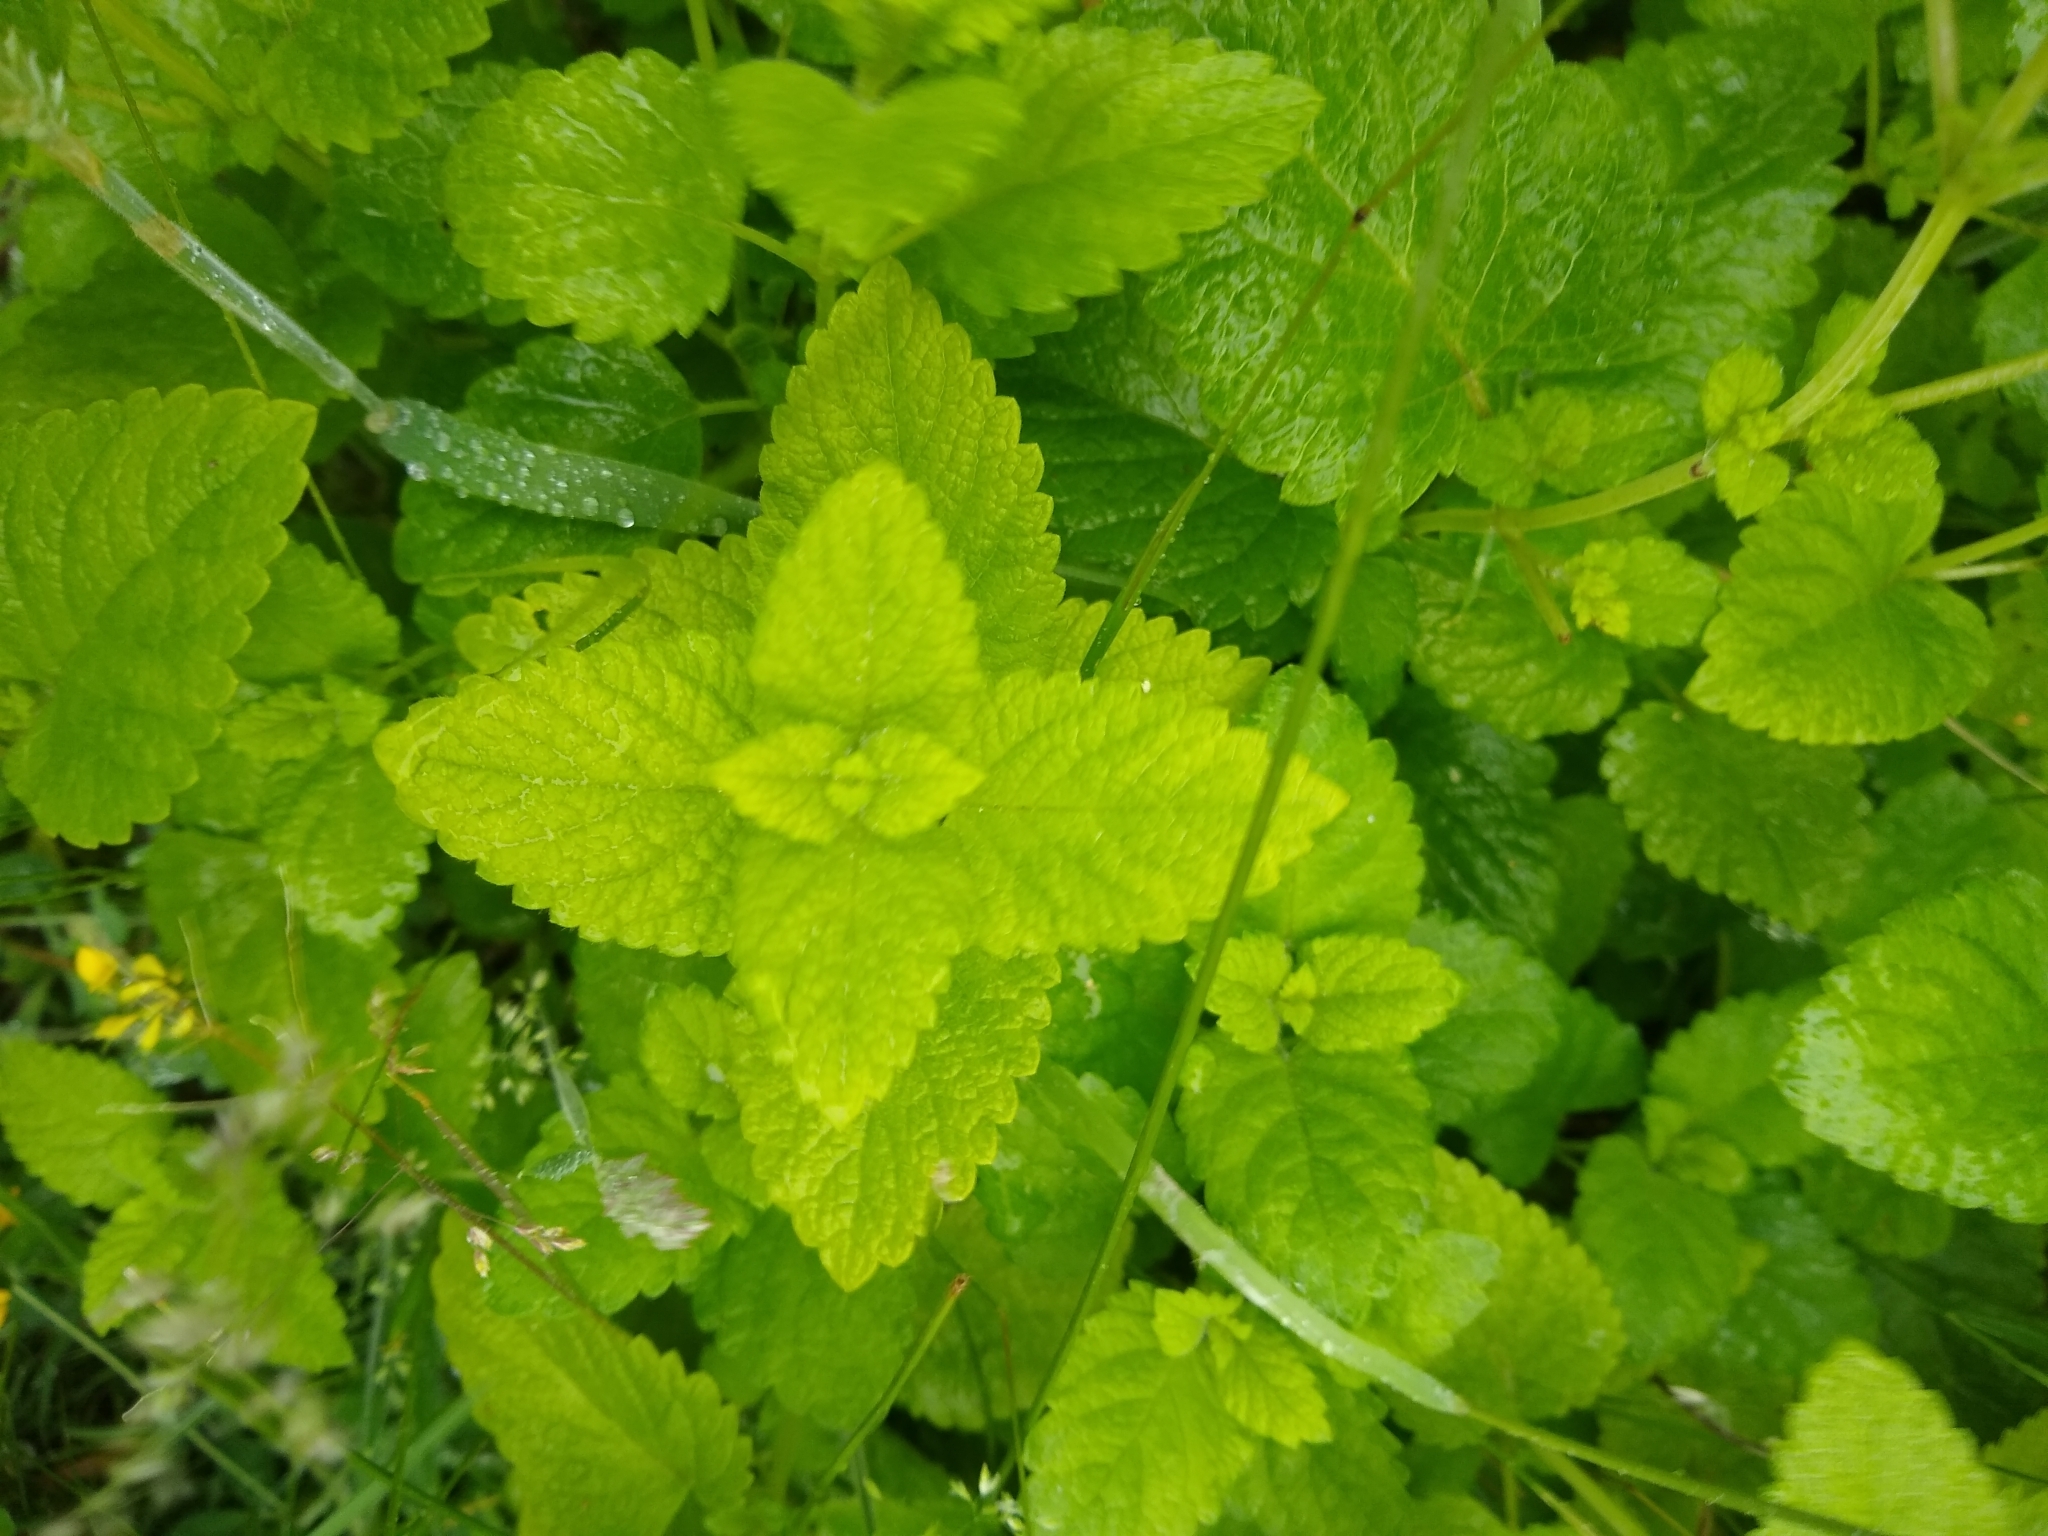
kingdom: Plantae
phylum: Tracheophyta
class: Magnoliopsida
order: Lamiales
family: Lamiaceae
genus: Melissa
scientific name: Melissa officinalis
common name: Balm
